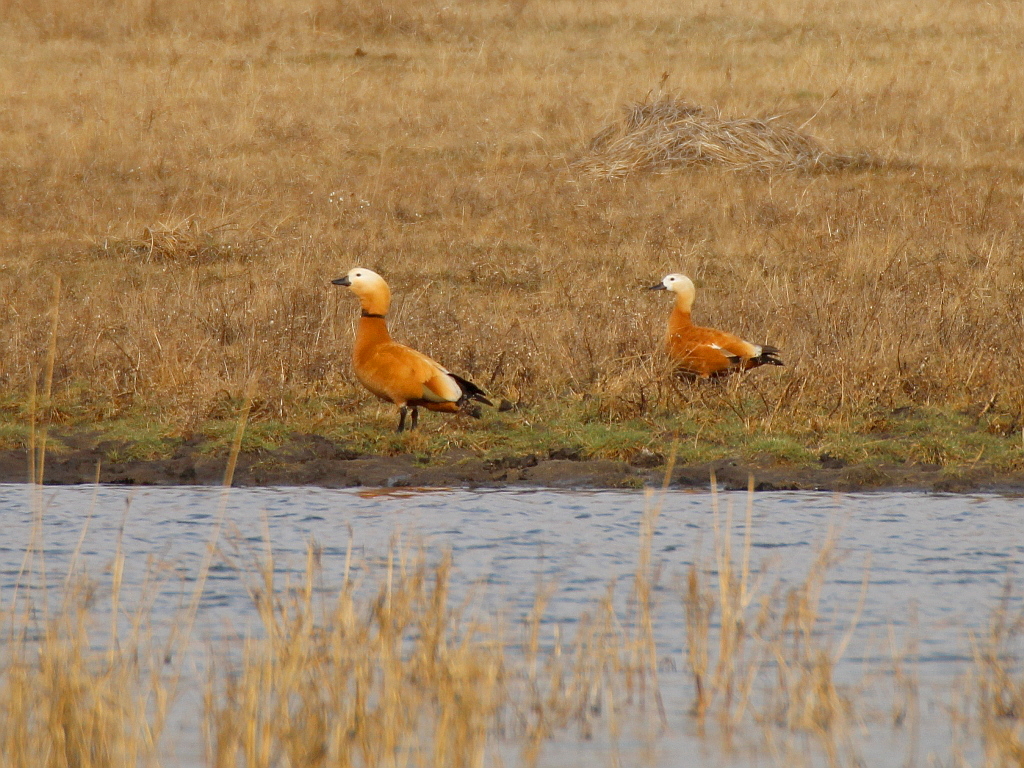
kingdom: Animalia
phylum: Chordata
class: Aves
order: Anseriformes
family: Anatidae
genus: Tadorna
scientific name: Tadorna ferruginea
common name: Ruddy shelduck
